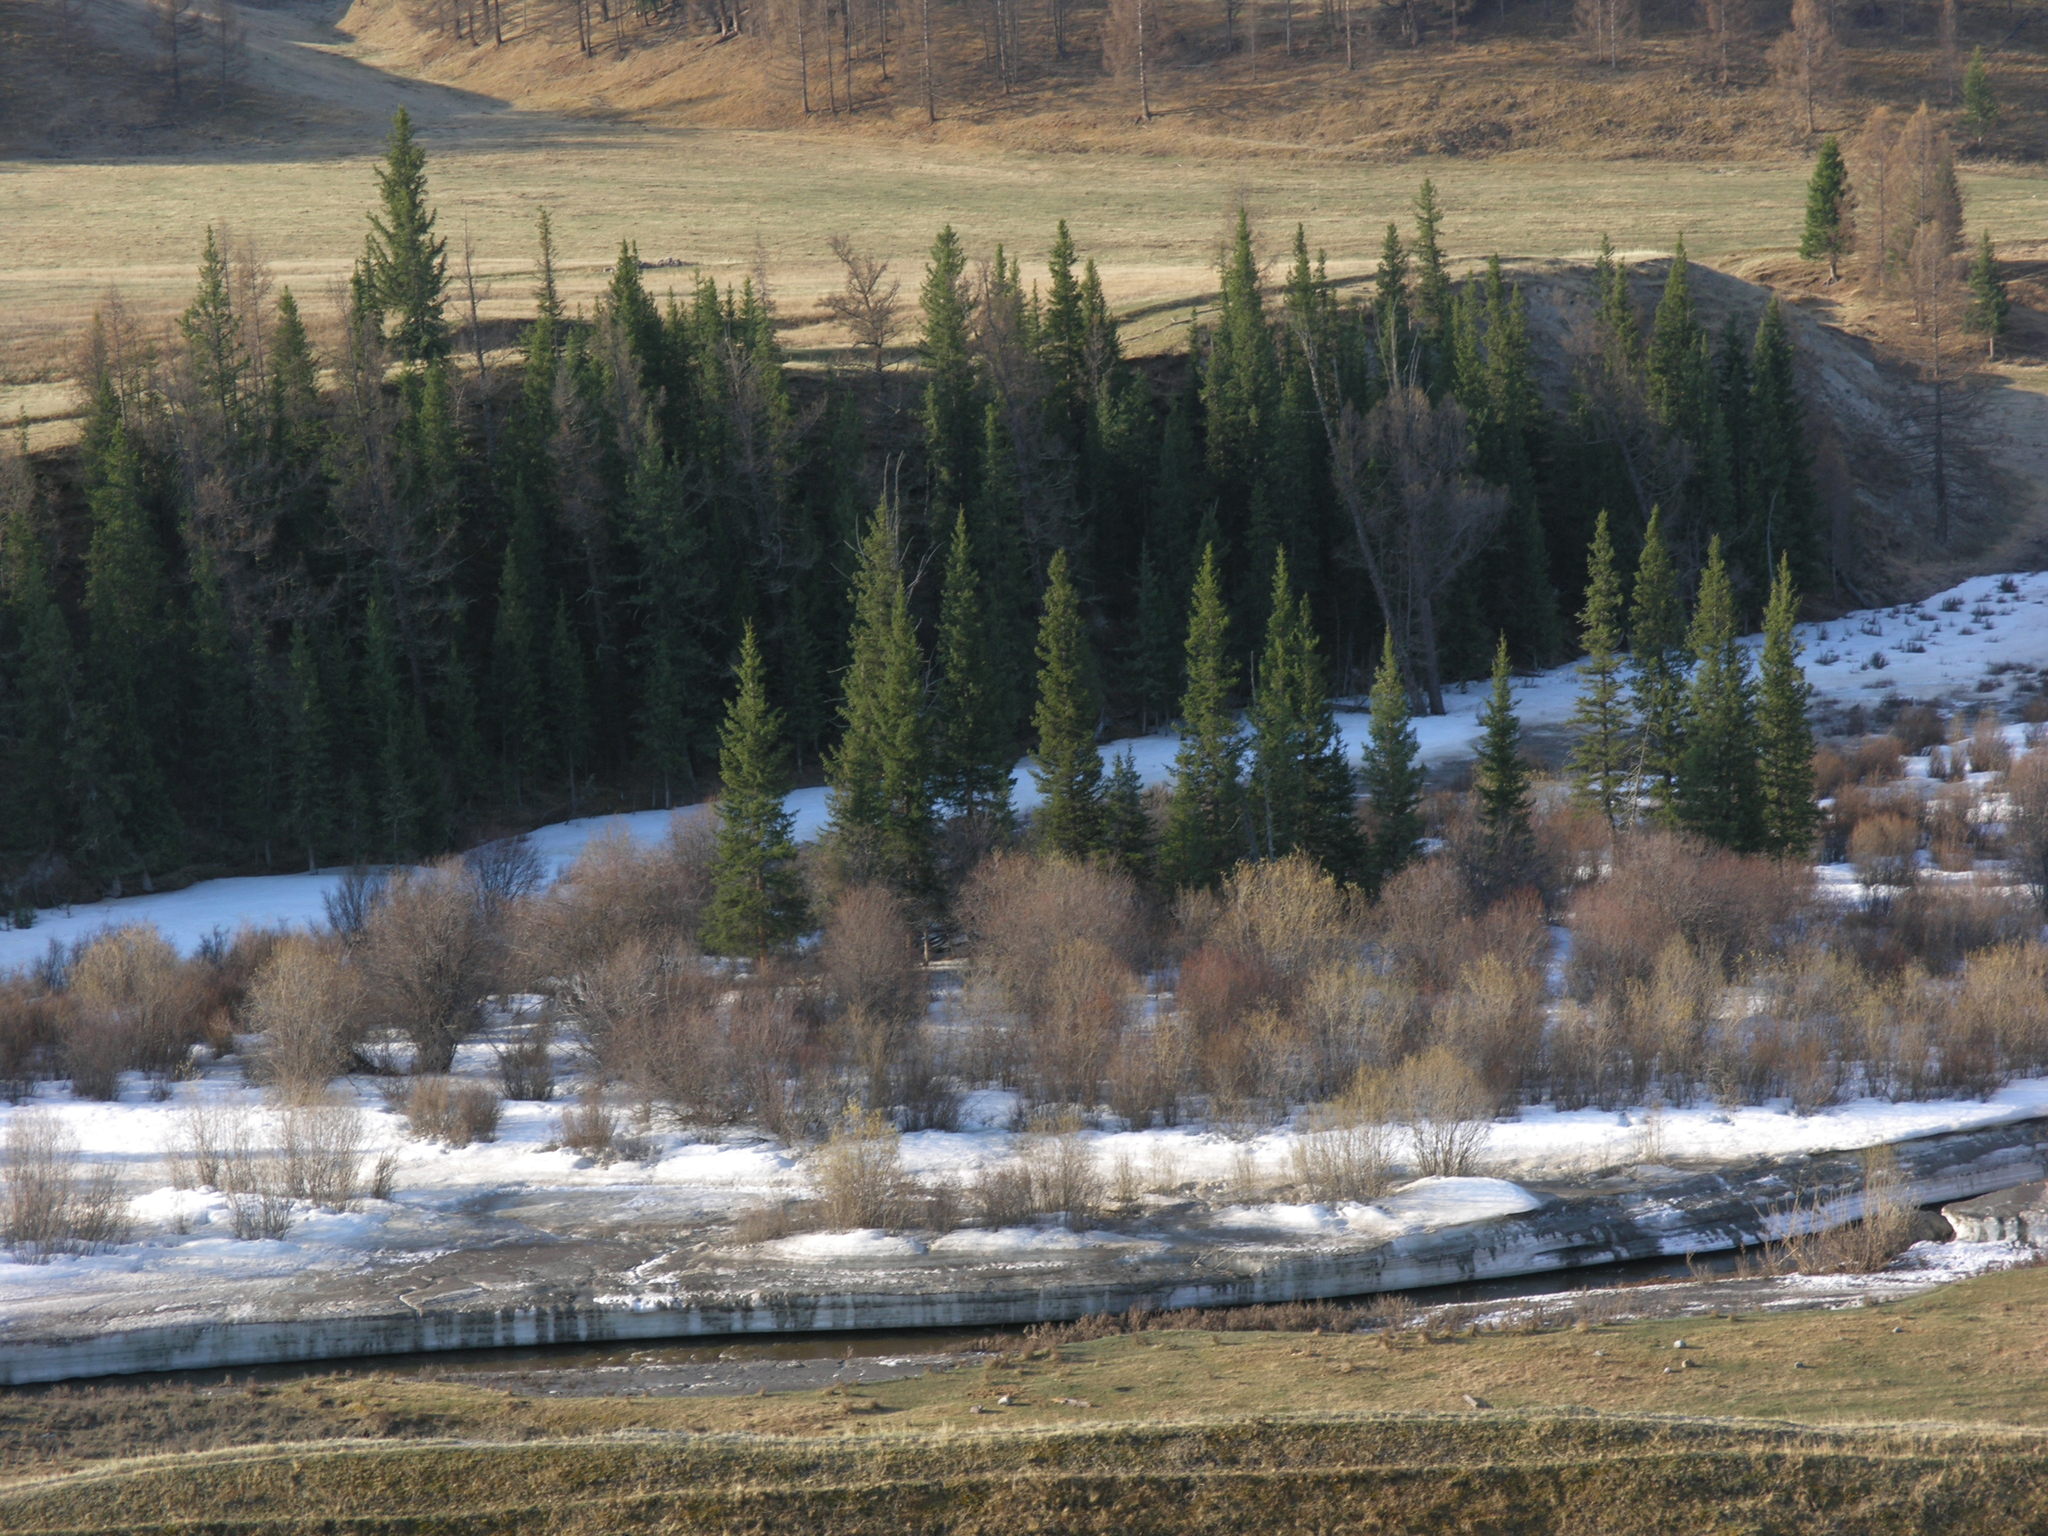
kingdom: Plantae
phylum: Tracheophyta
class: Pinopsida
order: Pinales
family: Pinaceae
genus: Picea
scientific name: Picea obovata
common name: Siberian spruce
